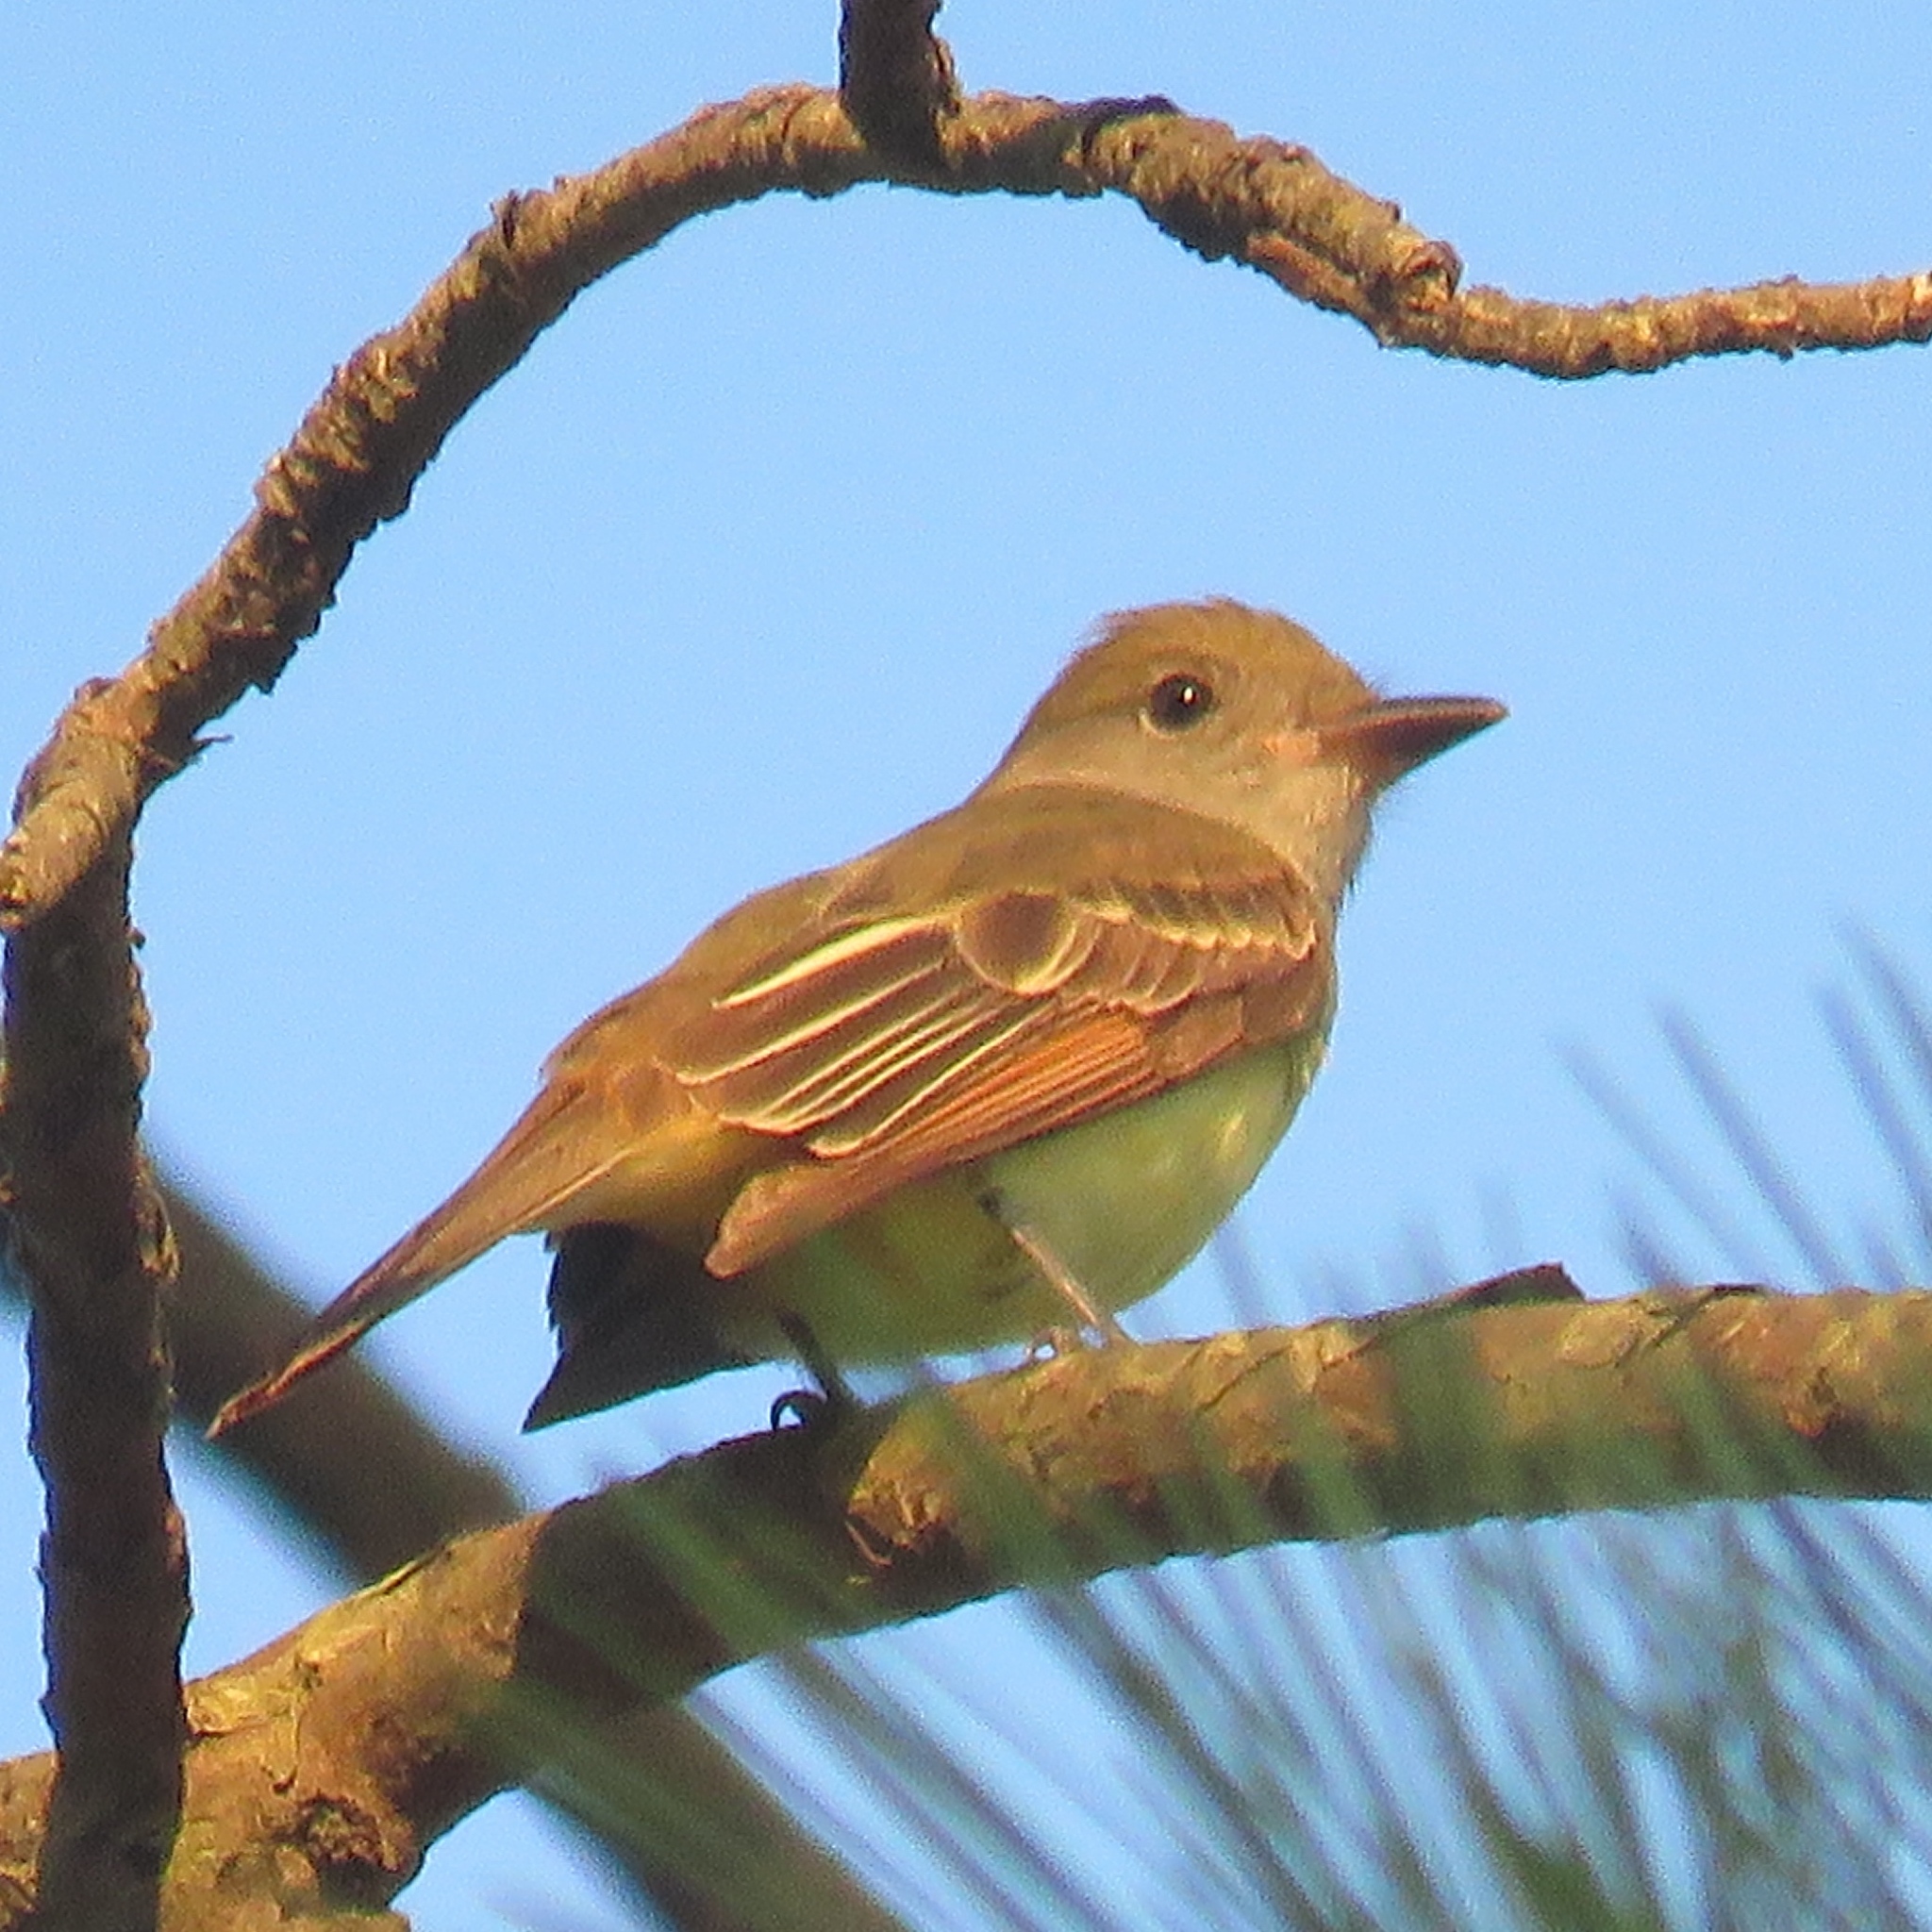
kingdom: Animalia
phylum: Chordata
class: Aves
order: Passeriformes
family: Tyrannidae
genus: Myiarchus
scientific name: Myiarchus crinitus
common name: Great crested flycatcher
